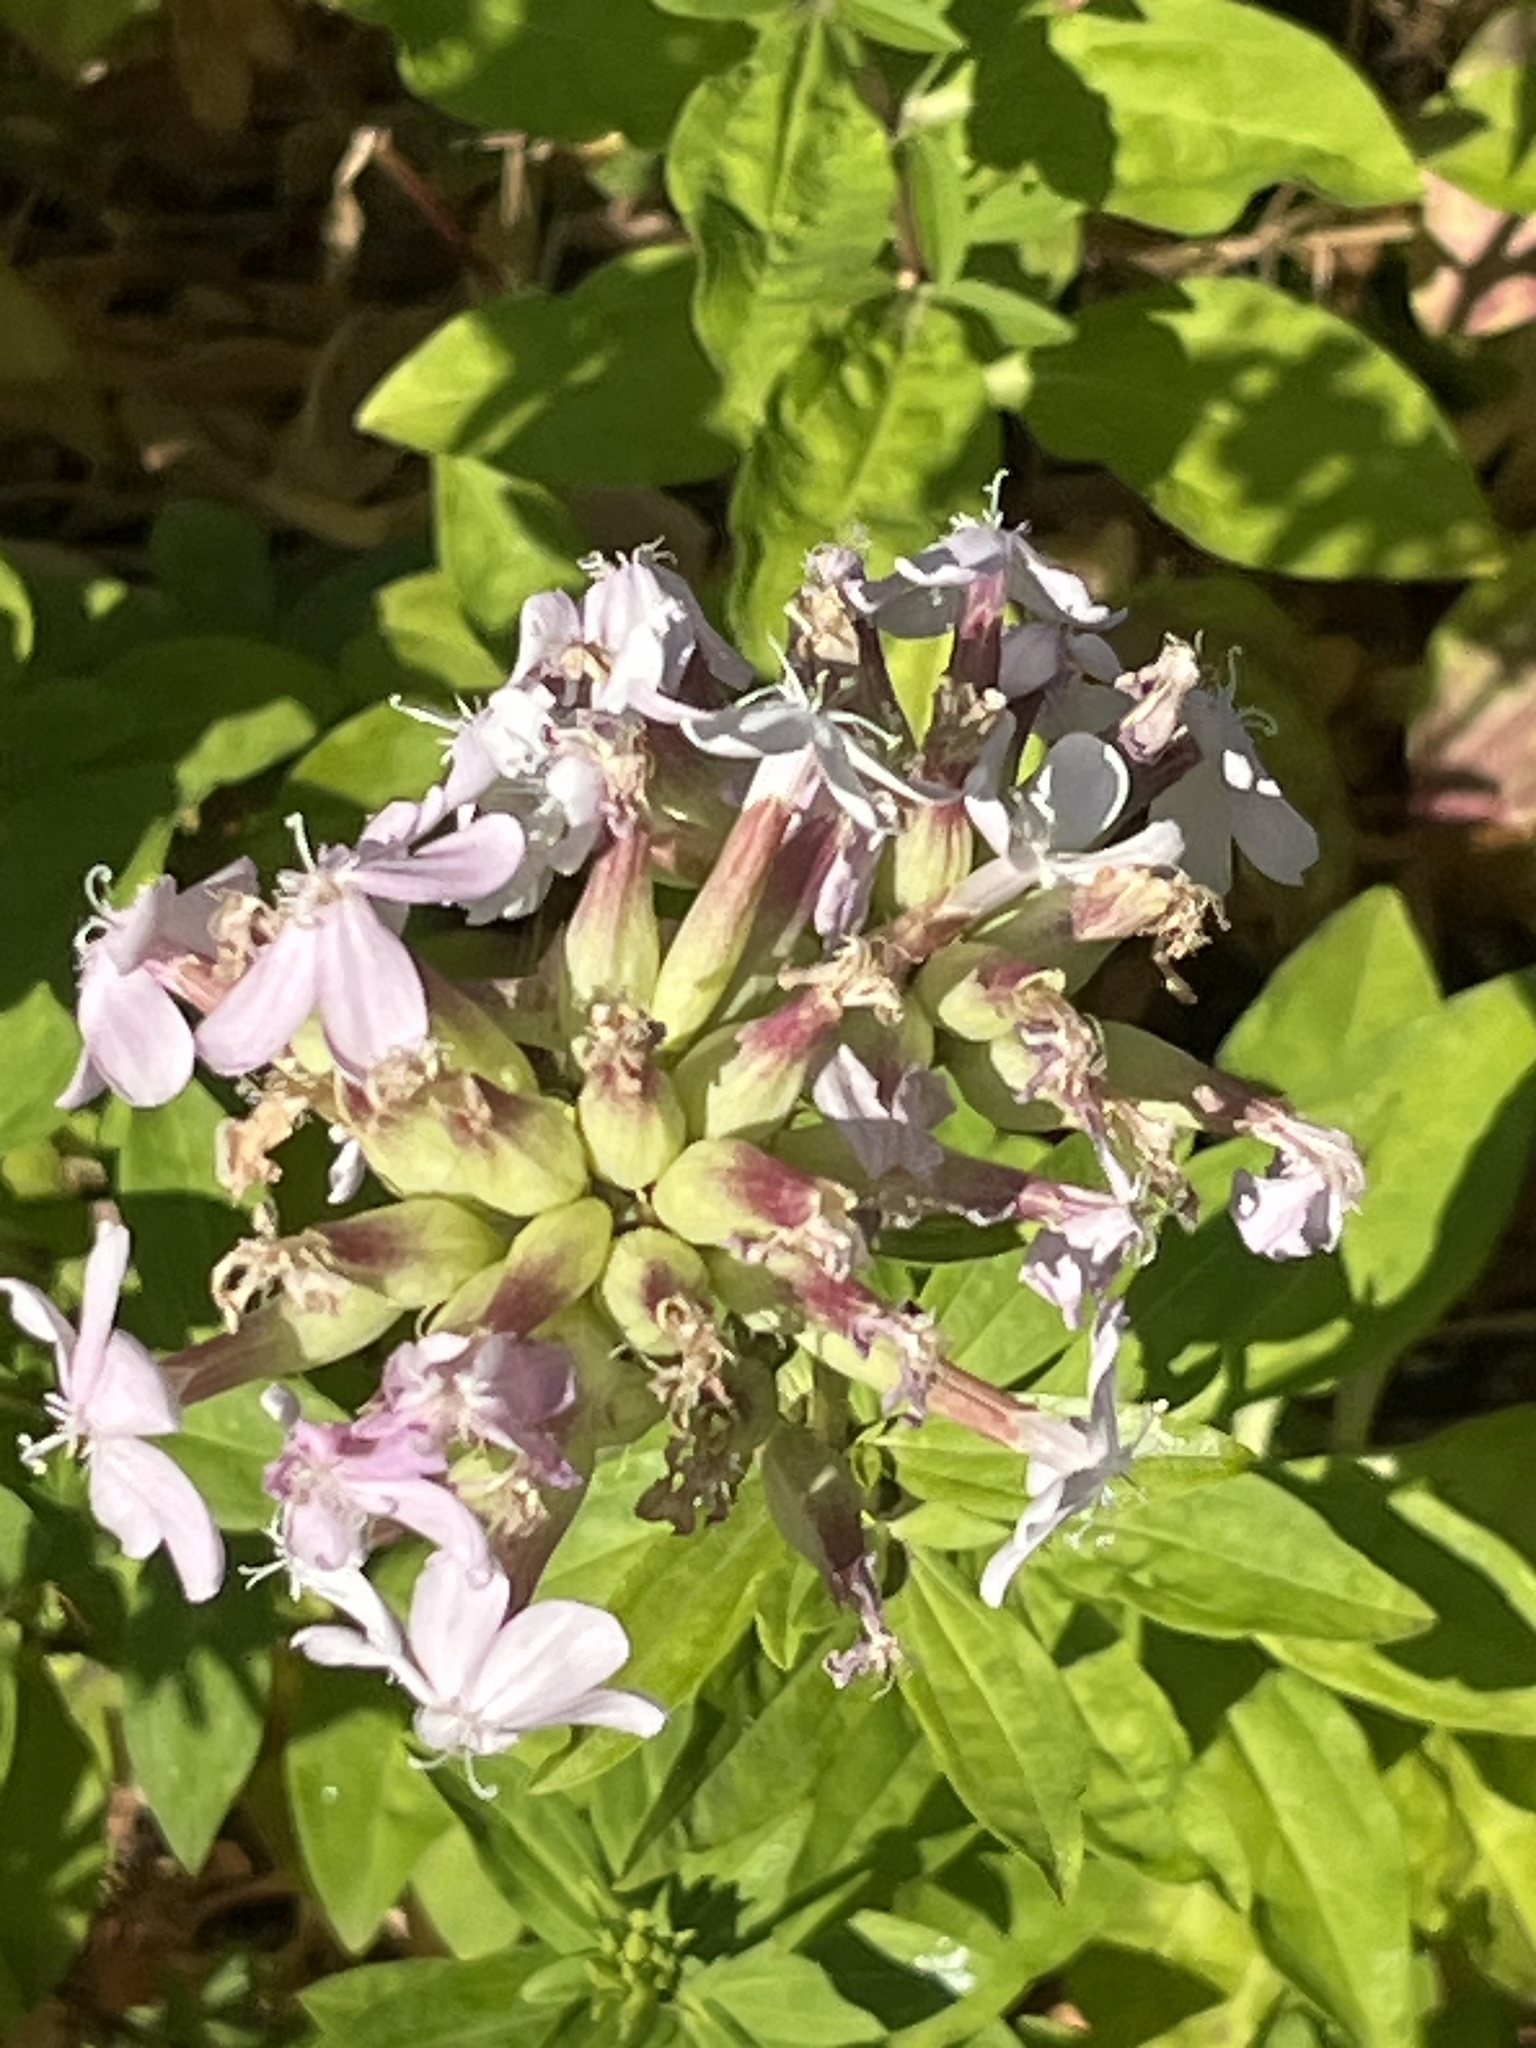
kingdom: Plantae
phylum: Tracheophyta
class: Magnoliopsida
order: Caryophyllales
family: Caryophyllaceae
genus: Saponaria
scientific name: Saponaria officinalis
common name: Soapwort
